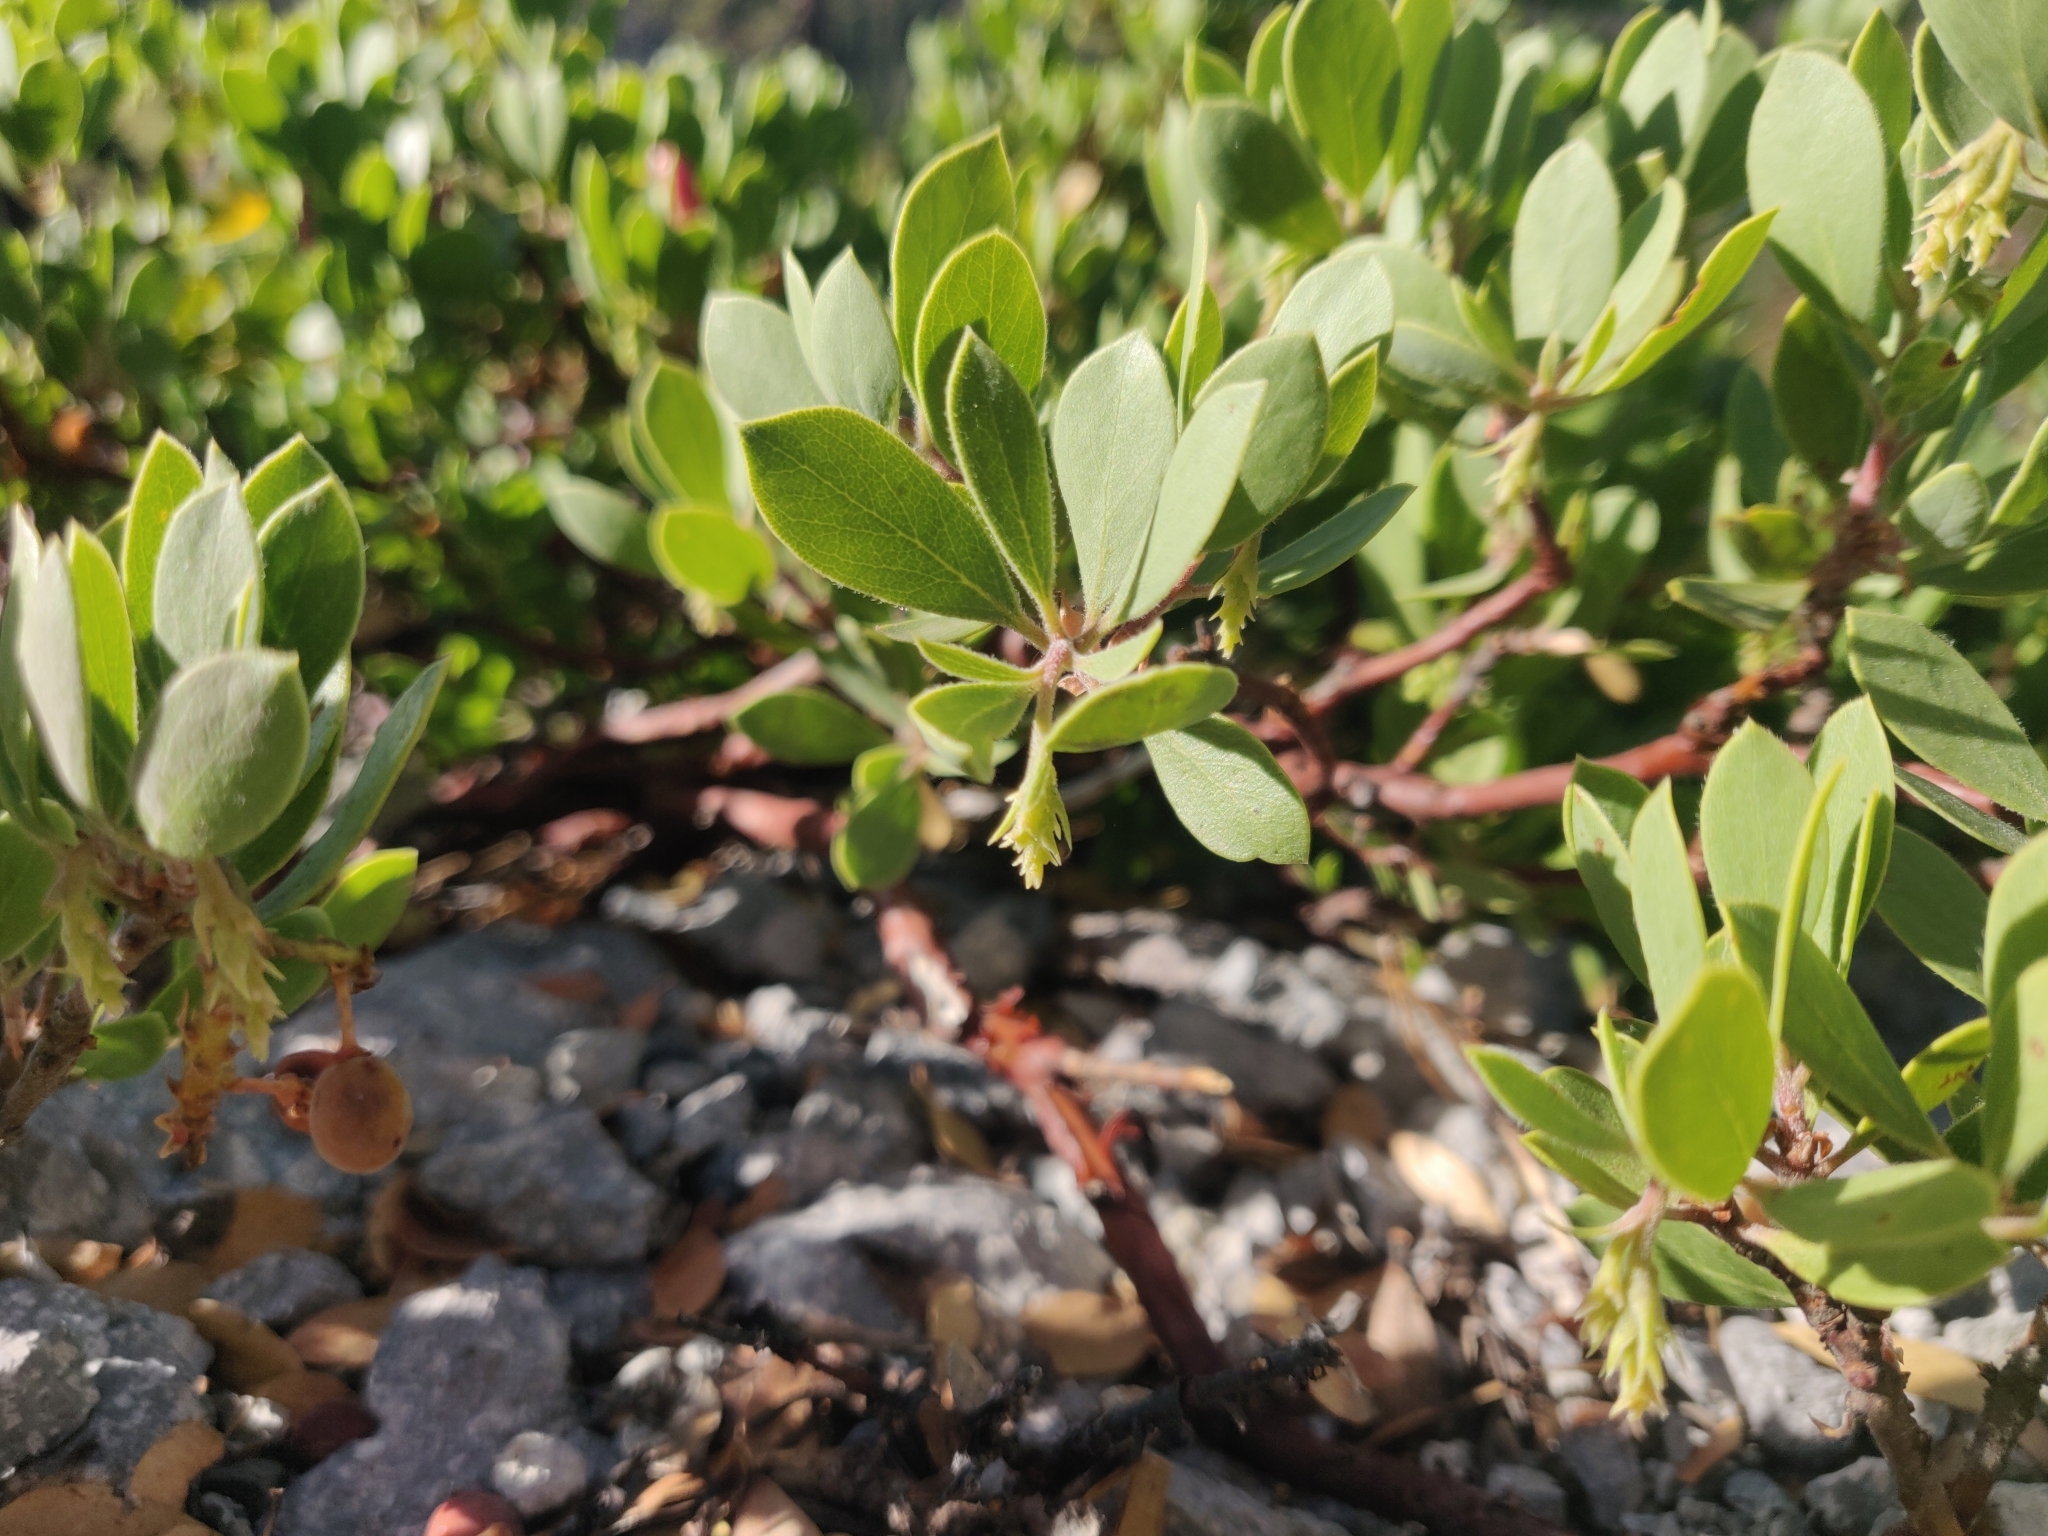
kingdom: Plantae
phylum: Tracheophyta
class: Magnoliopsida
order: Ericales
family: Ericaceae
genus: Arctostaphylos
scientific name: Arctostaphylos nevadensis
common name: Pinemat manzanita
